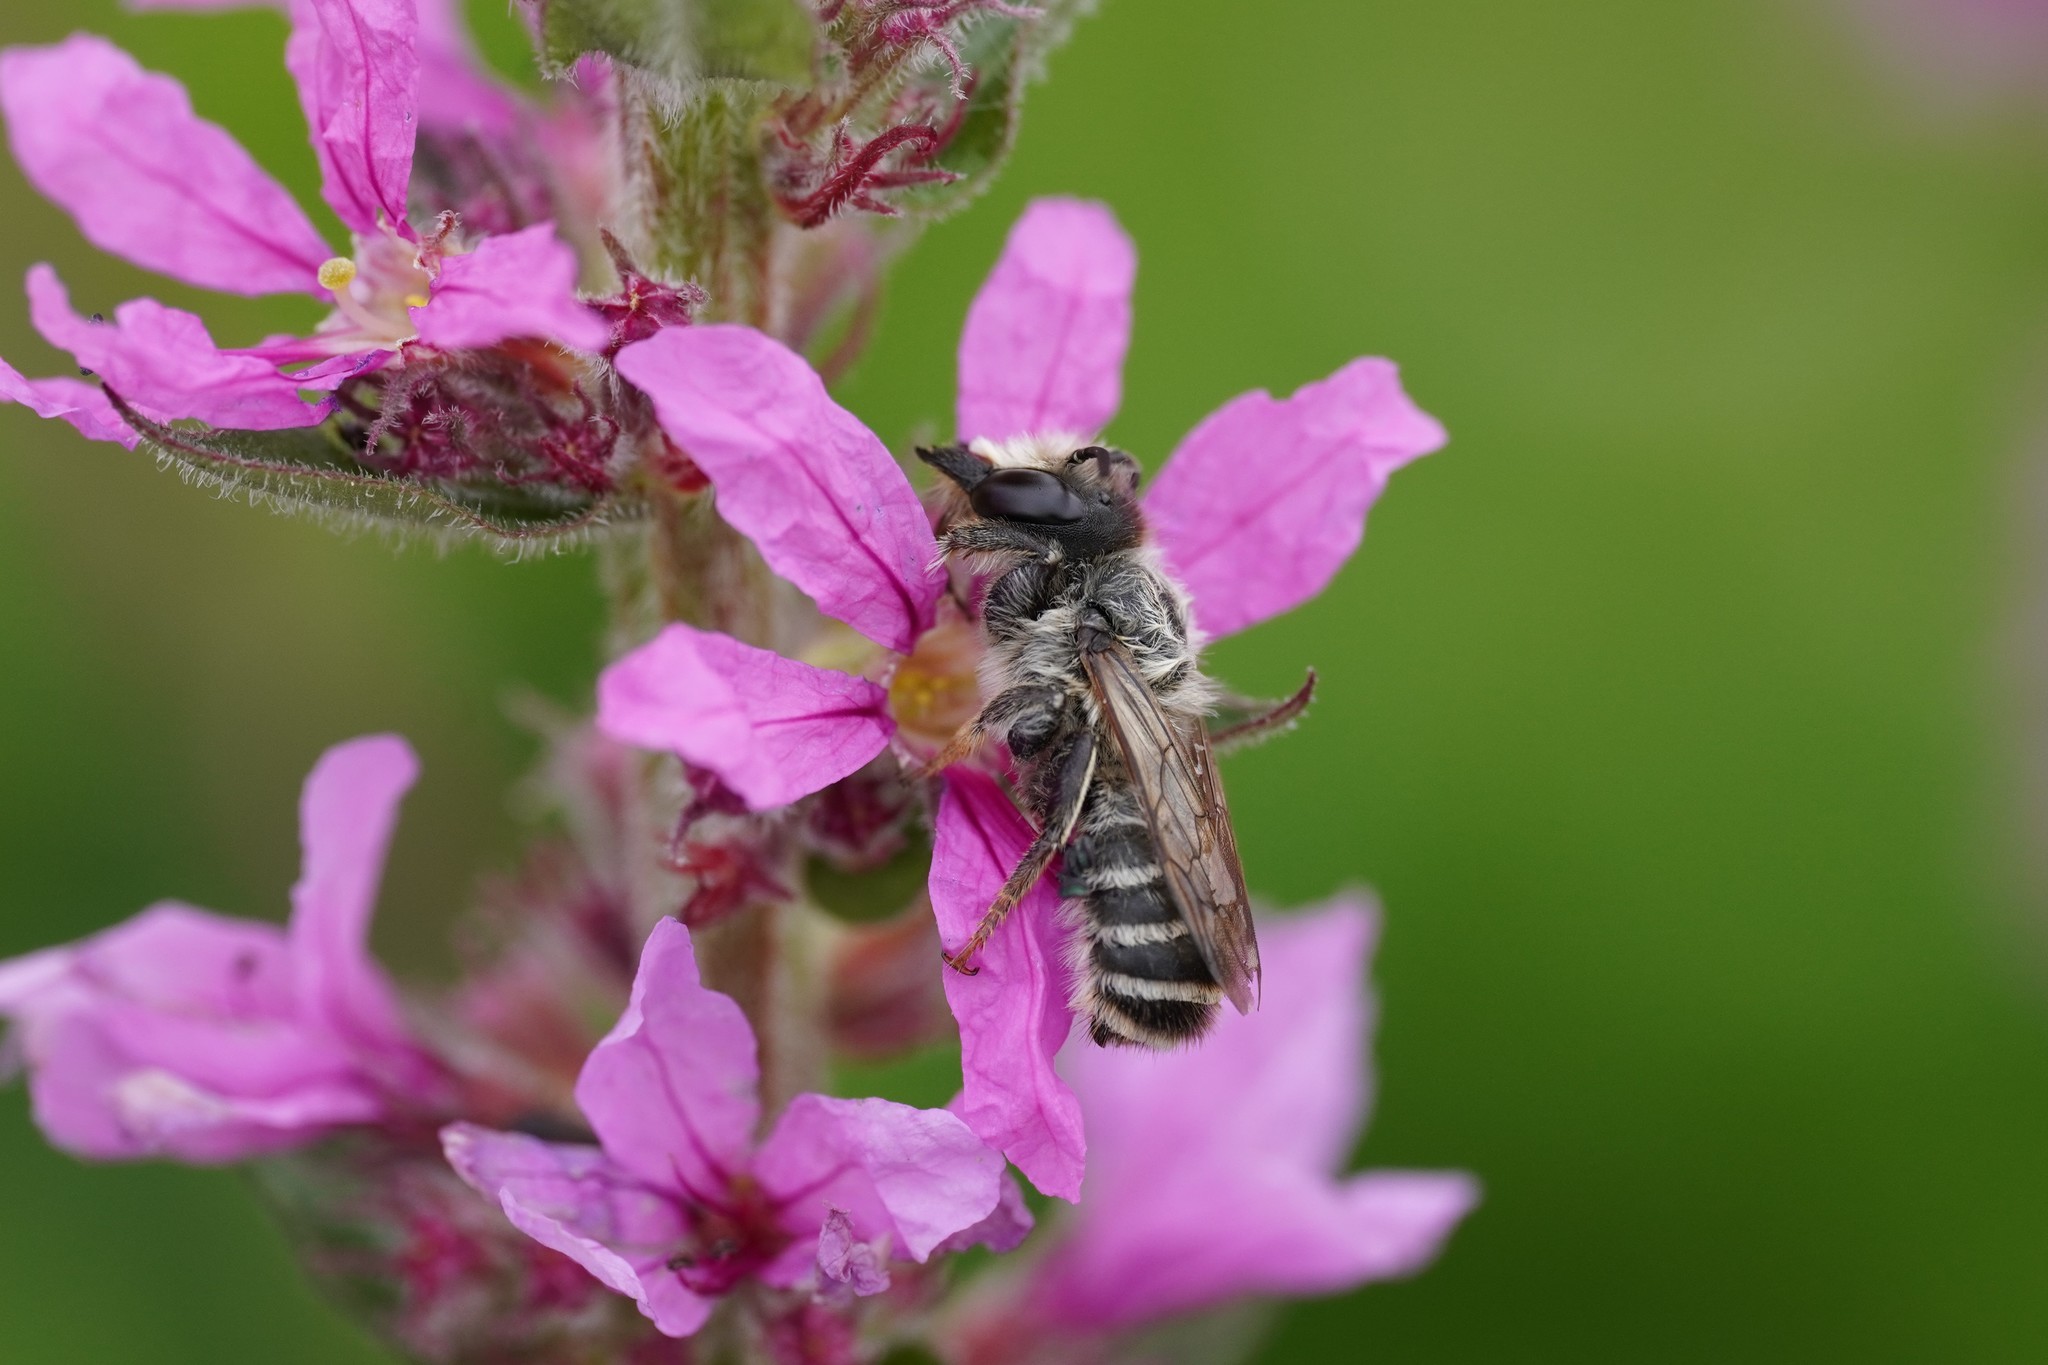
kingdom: Animalia
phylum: Arthropoda
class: Insecta
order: Hymenoptera
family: Megachilidae
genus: Megachile
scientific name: Megachile ericetorum
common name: Leafcutter bee
